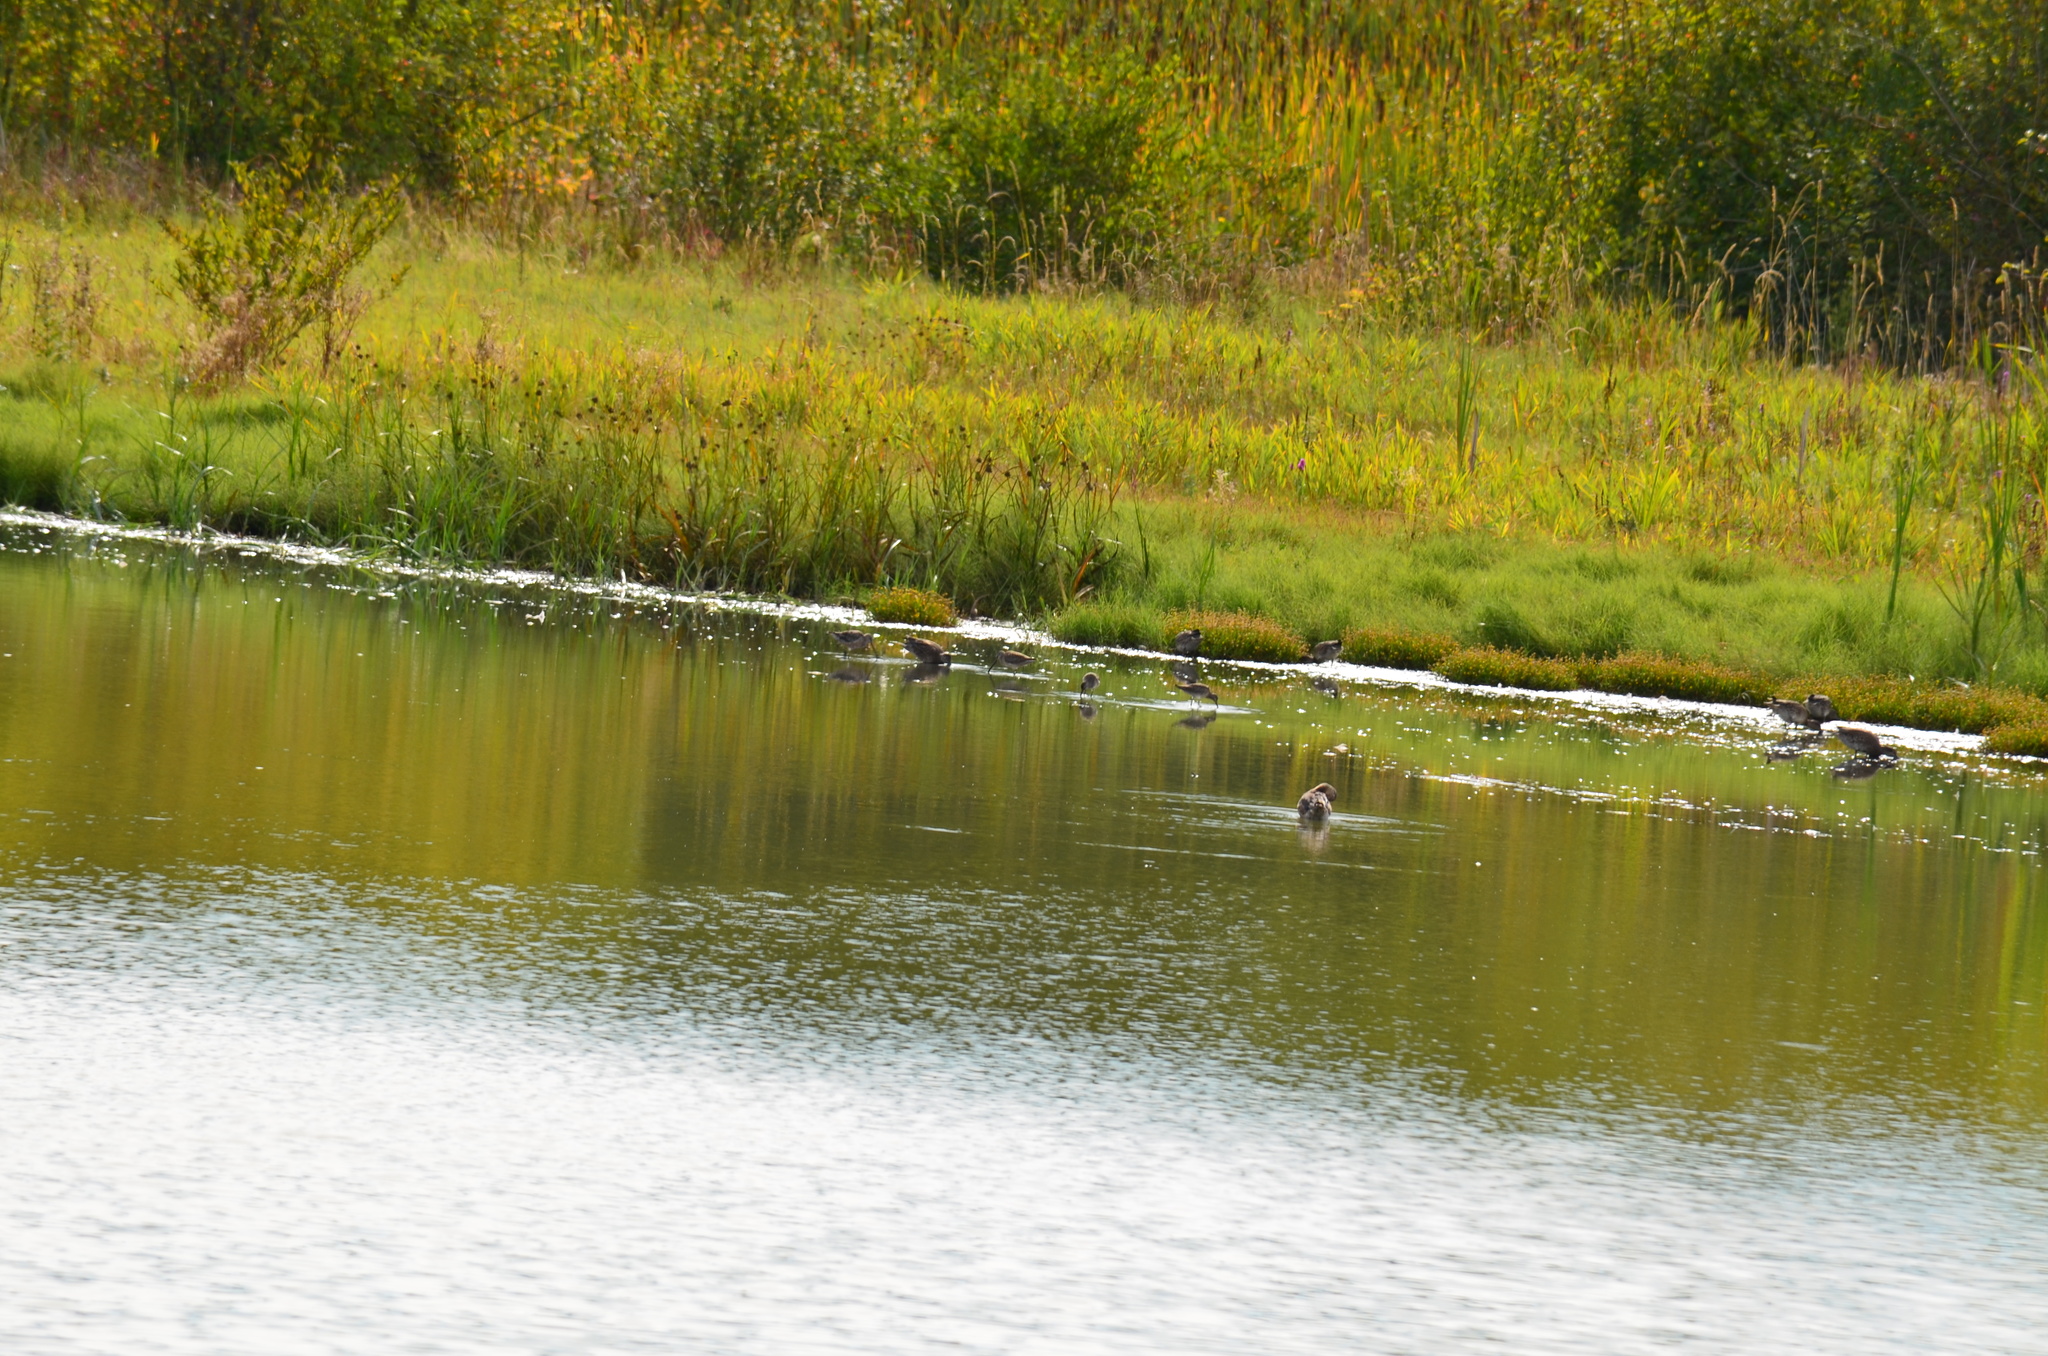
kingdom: Animalia
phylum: Chordata
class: Aves
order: Anseriformes
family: Anatidae
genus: Mareca
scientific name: Mareca americana
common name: American wigeon
